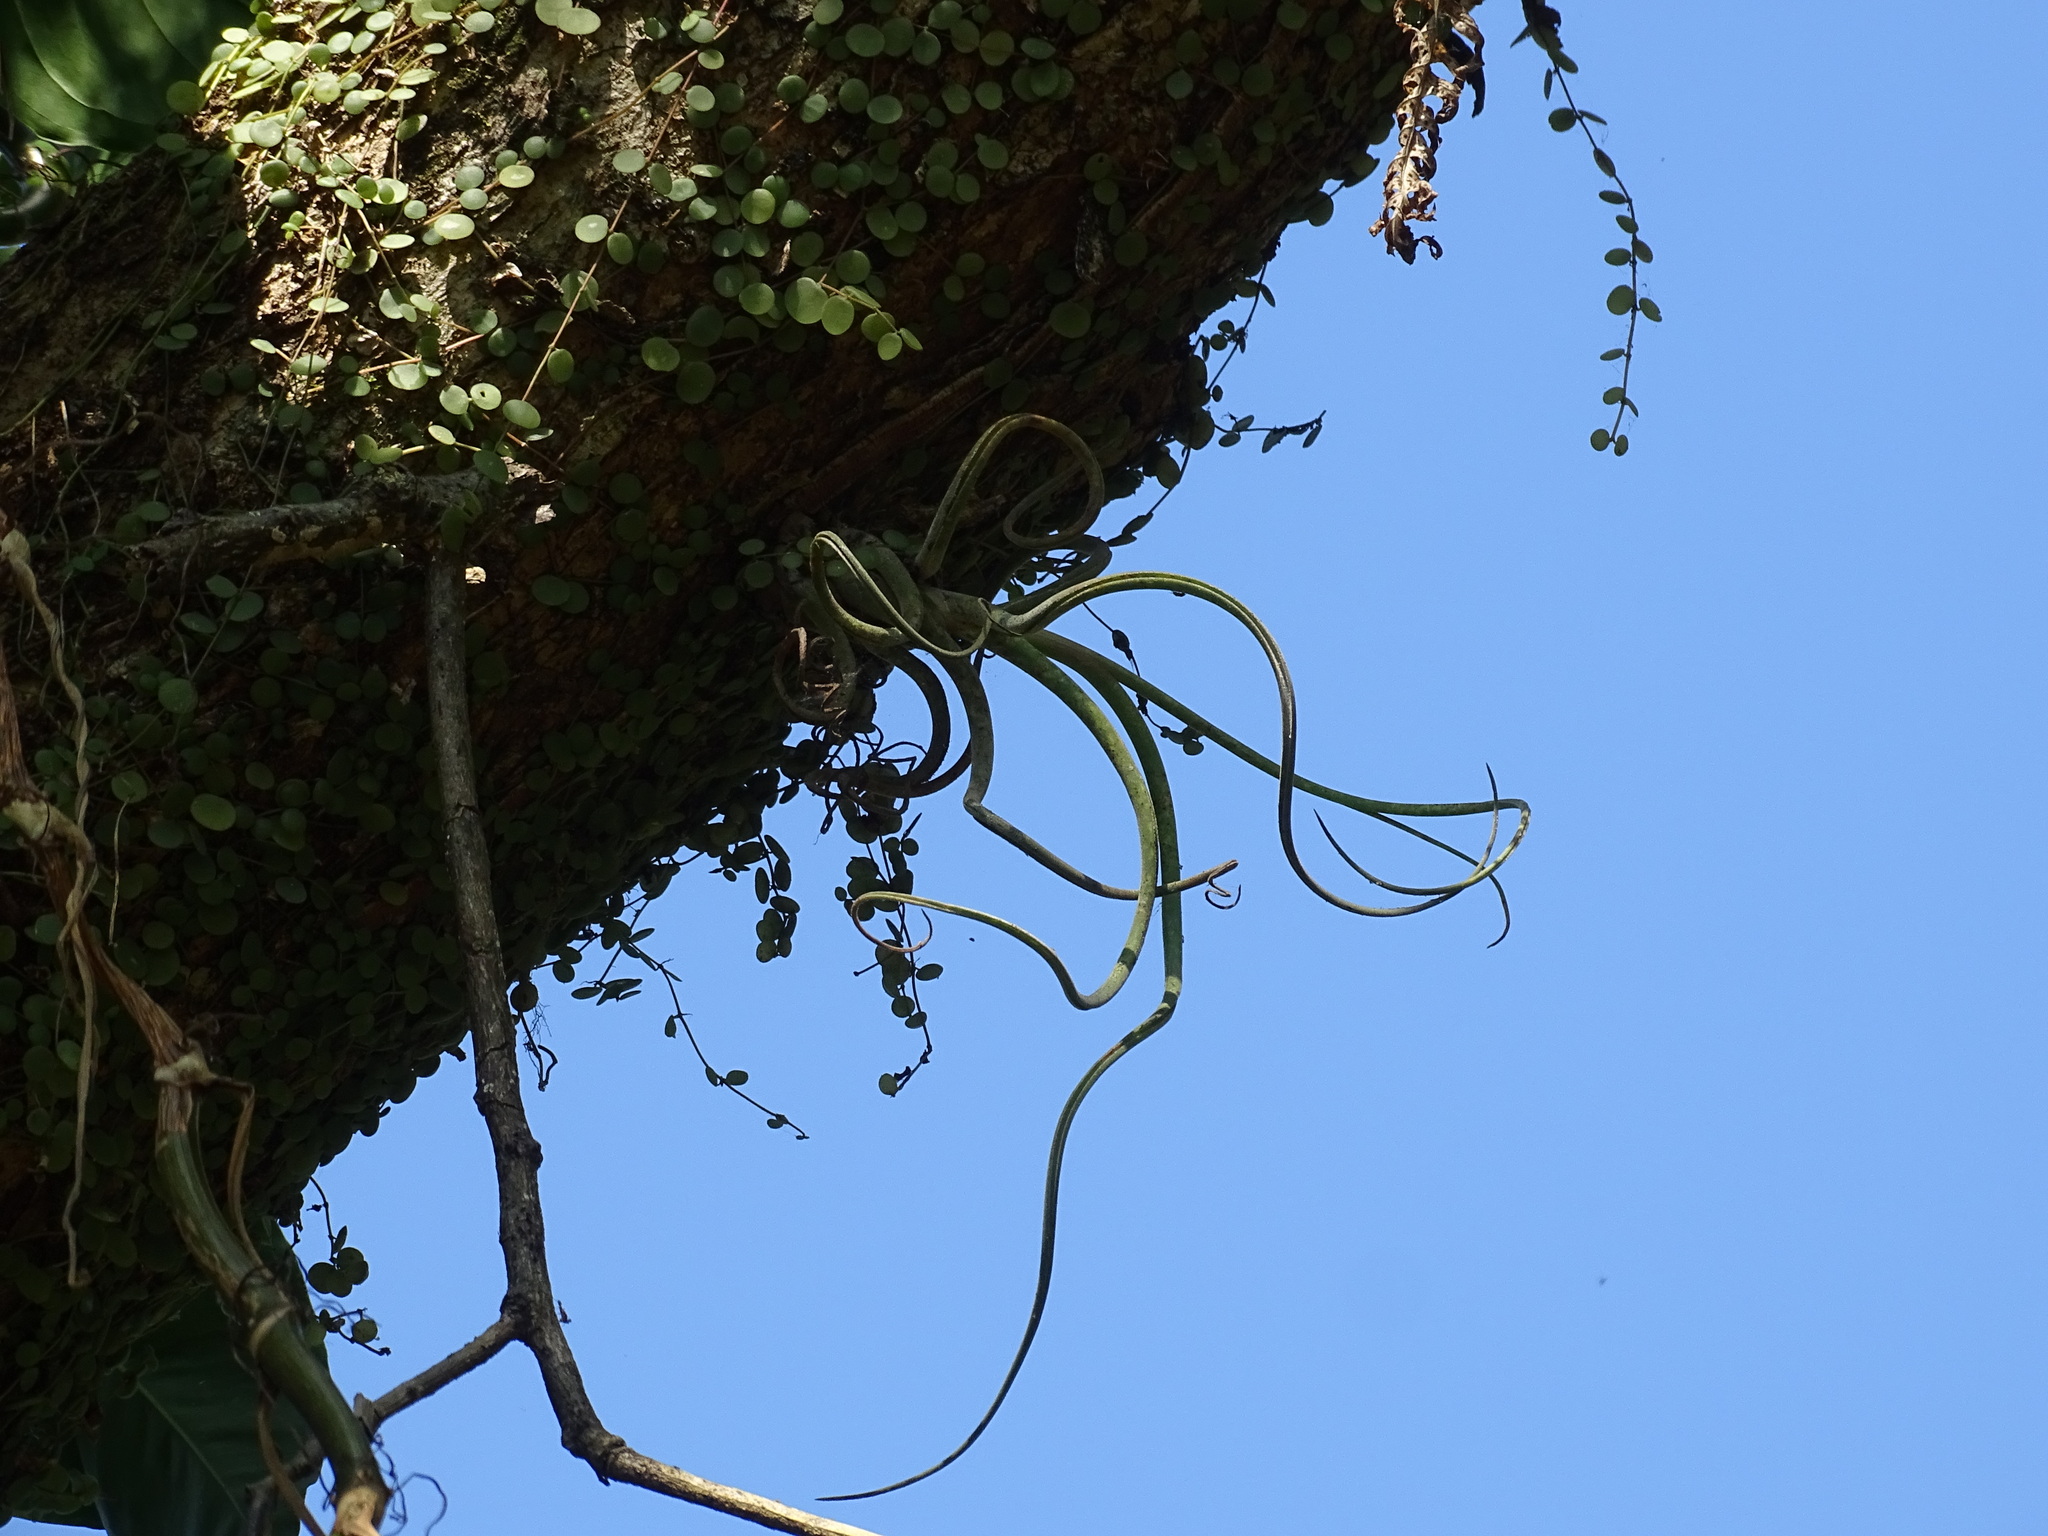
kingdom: Plantae
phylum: Tracheophyta
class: Liliopsida
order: Poales
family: Bromeliaceae
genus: Tillandsia
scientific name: Tillandsia caput-medusae
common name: Octopus plant
